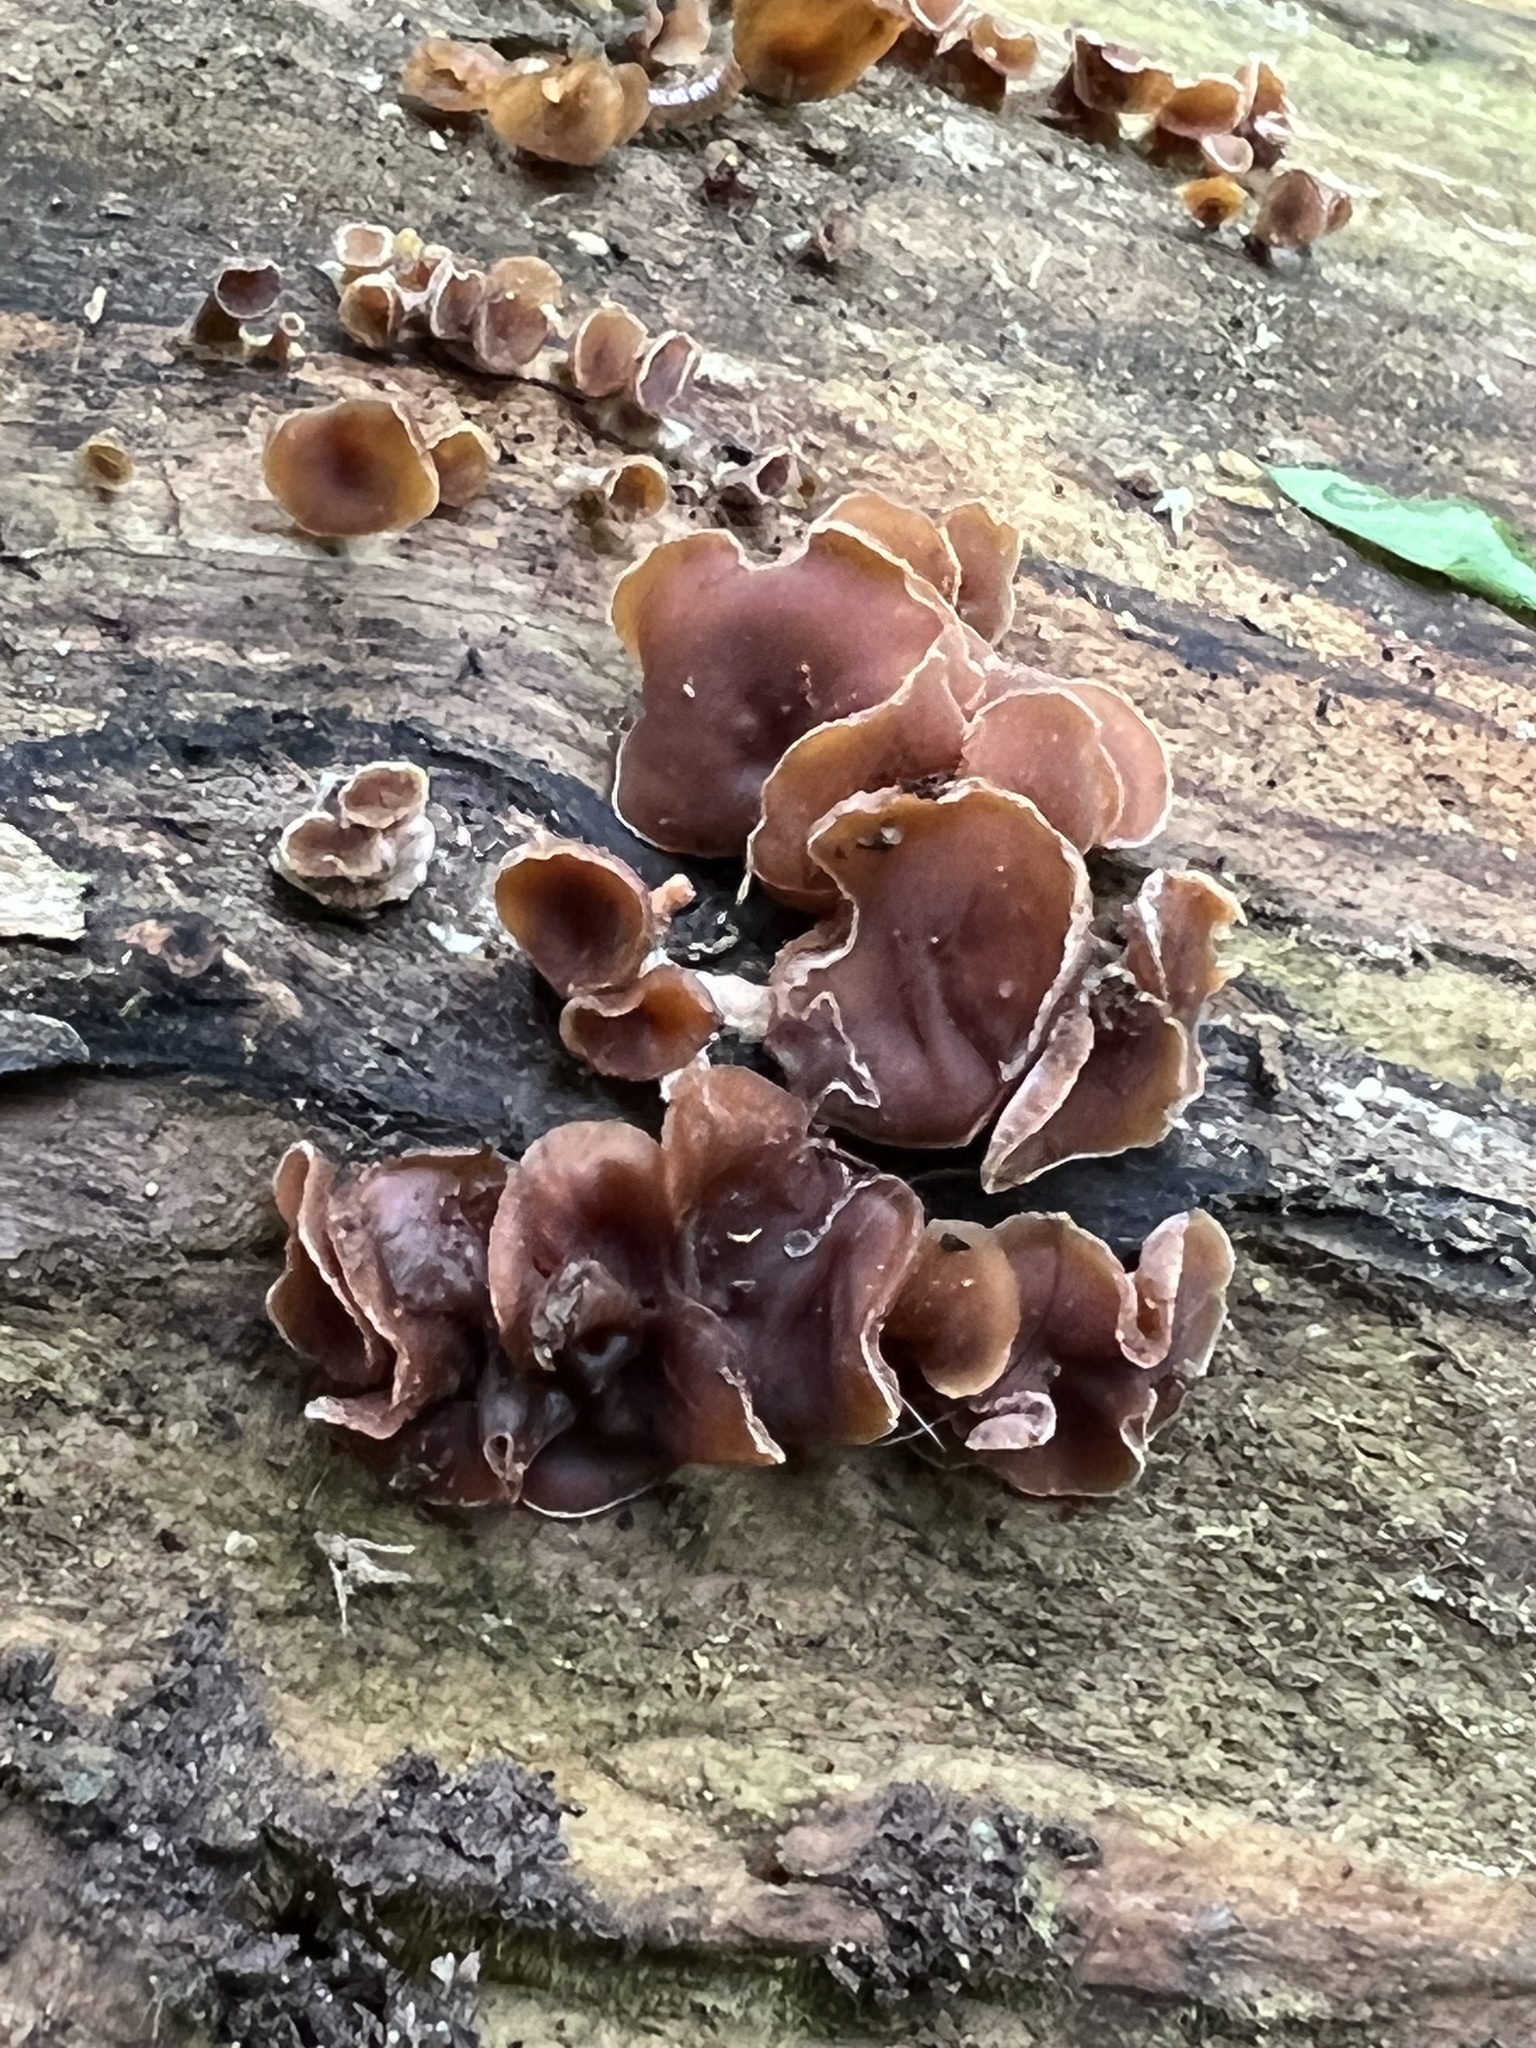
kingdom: Fungi
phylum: Basidiomycota
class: Dacrymycetes
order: Dacrymycetales
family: Dacrymycetaceae
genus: Dacryopinax
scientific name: Dacryopinax elegans
